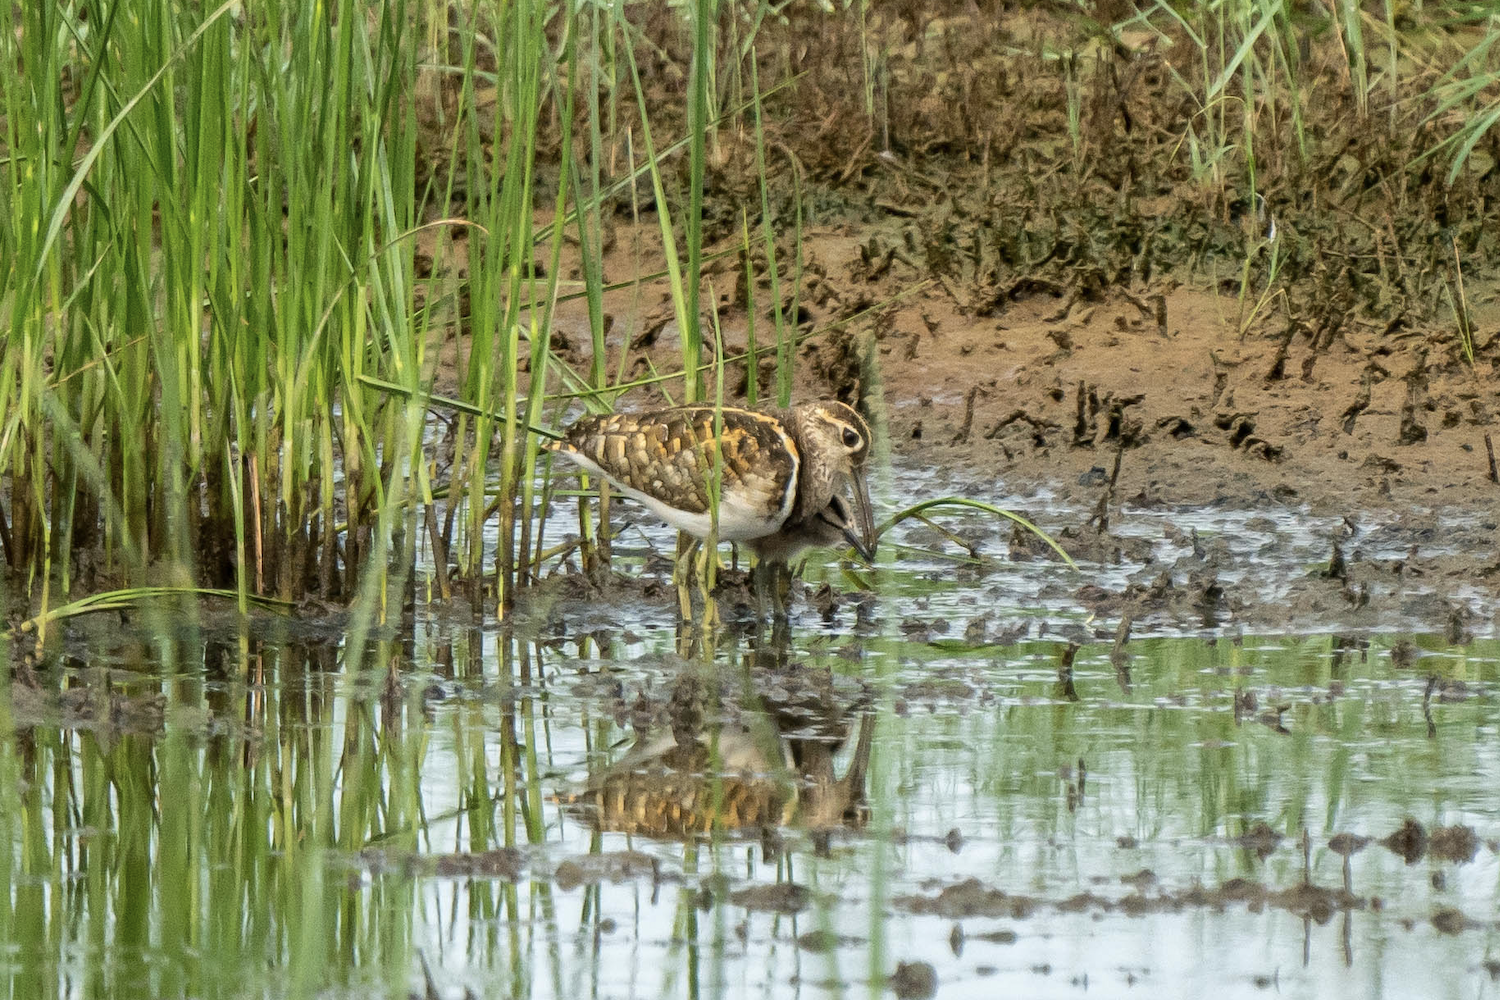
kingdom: Animalia
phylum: Chordata
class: Aves
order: Charadriiformes
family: Rostratulidae
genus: Rostratula
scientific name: Rostratula benghalensis
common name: Greater painted-snipe
